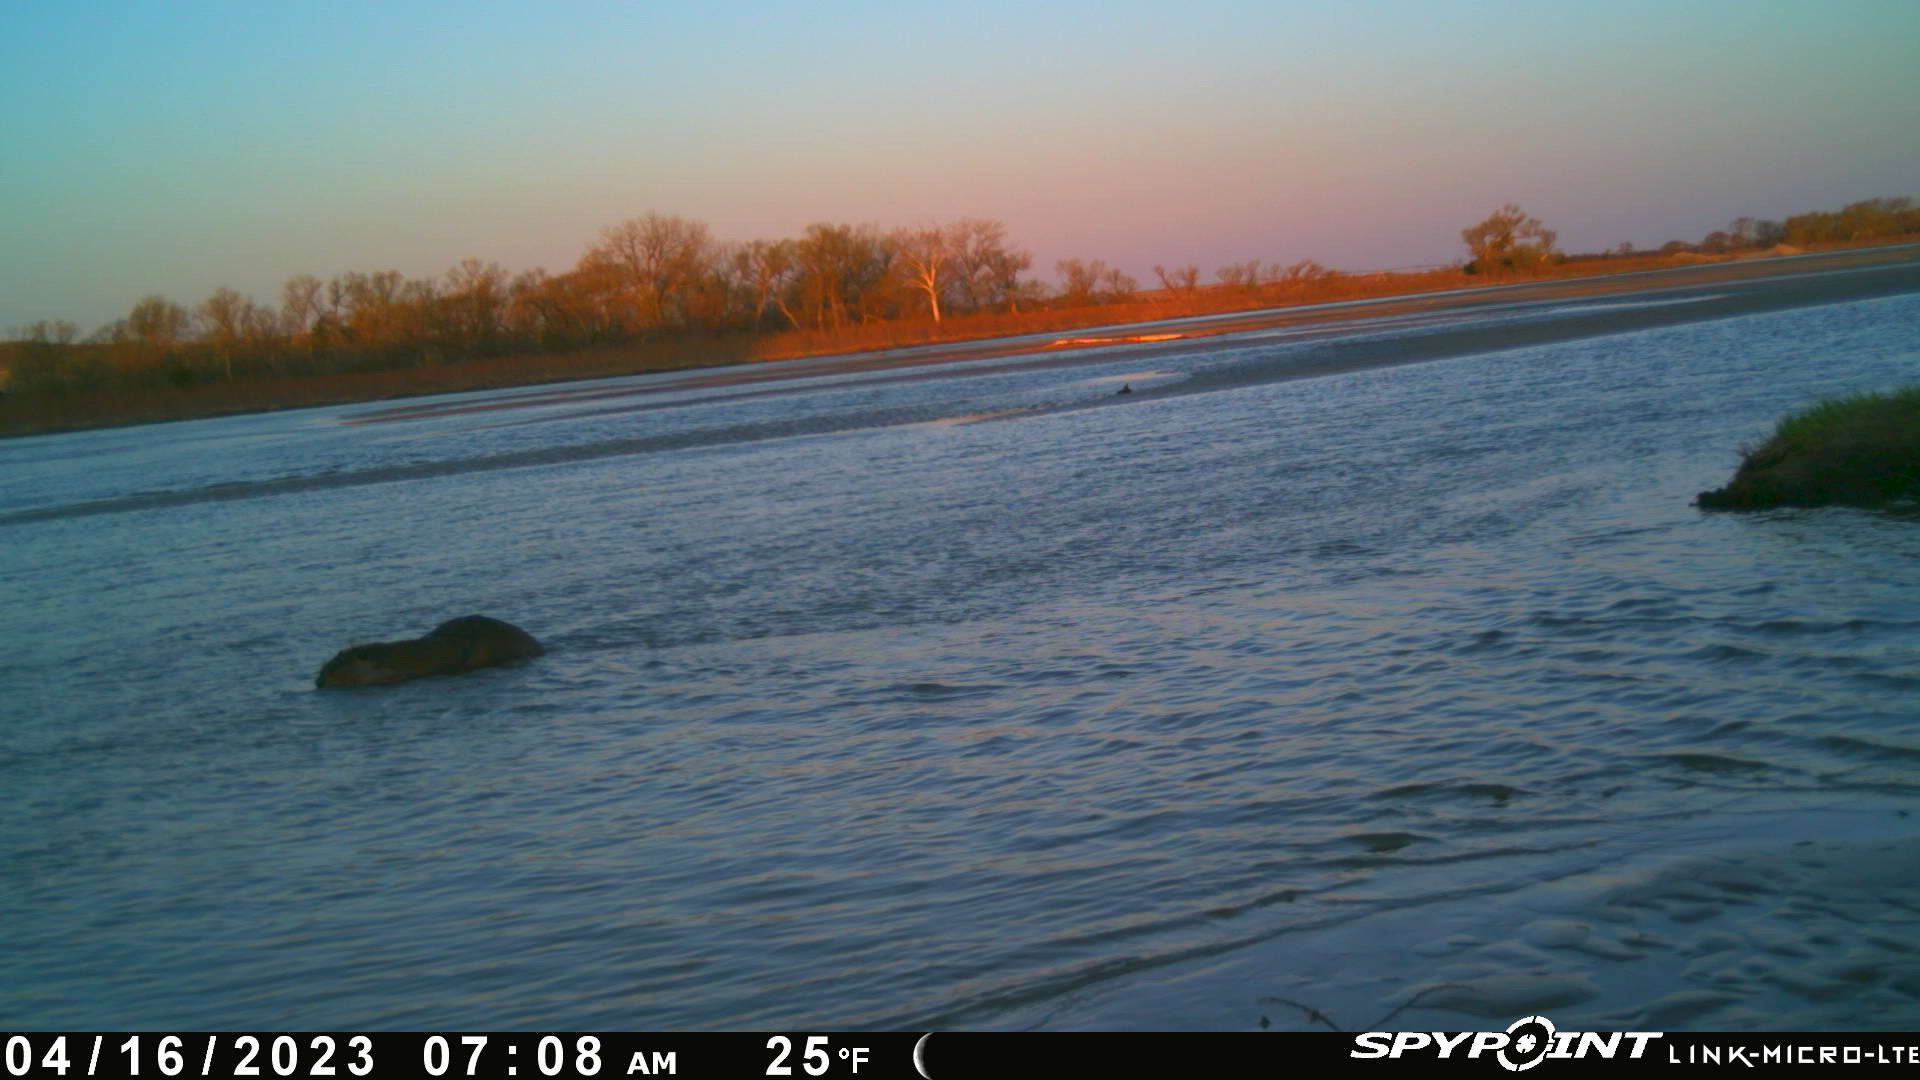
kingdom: Animalia
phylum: Chordata
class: Mammalia
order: Rodentia
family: Castoridae
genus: Castor
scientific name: Castor canadensis
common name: American beaver
